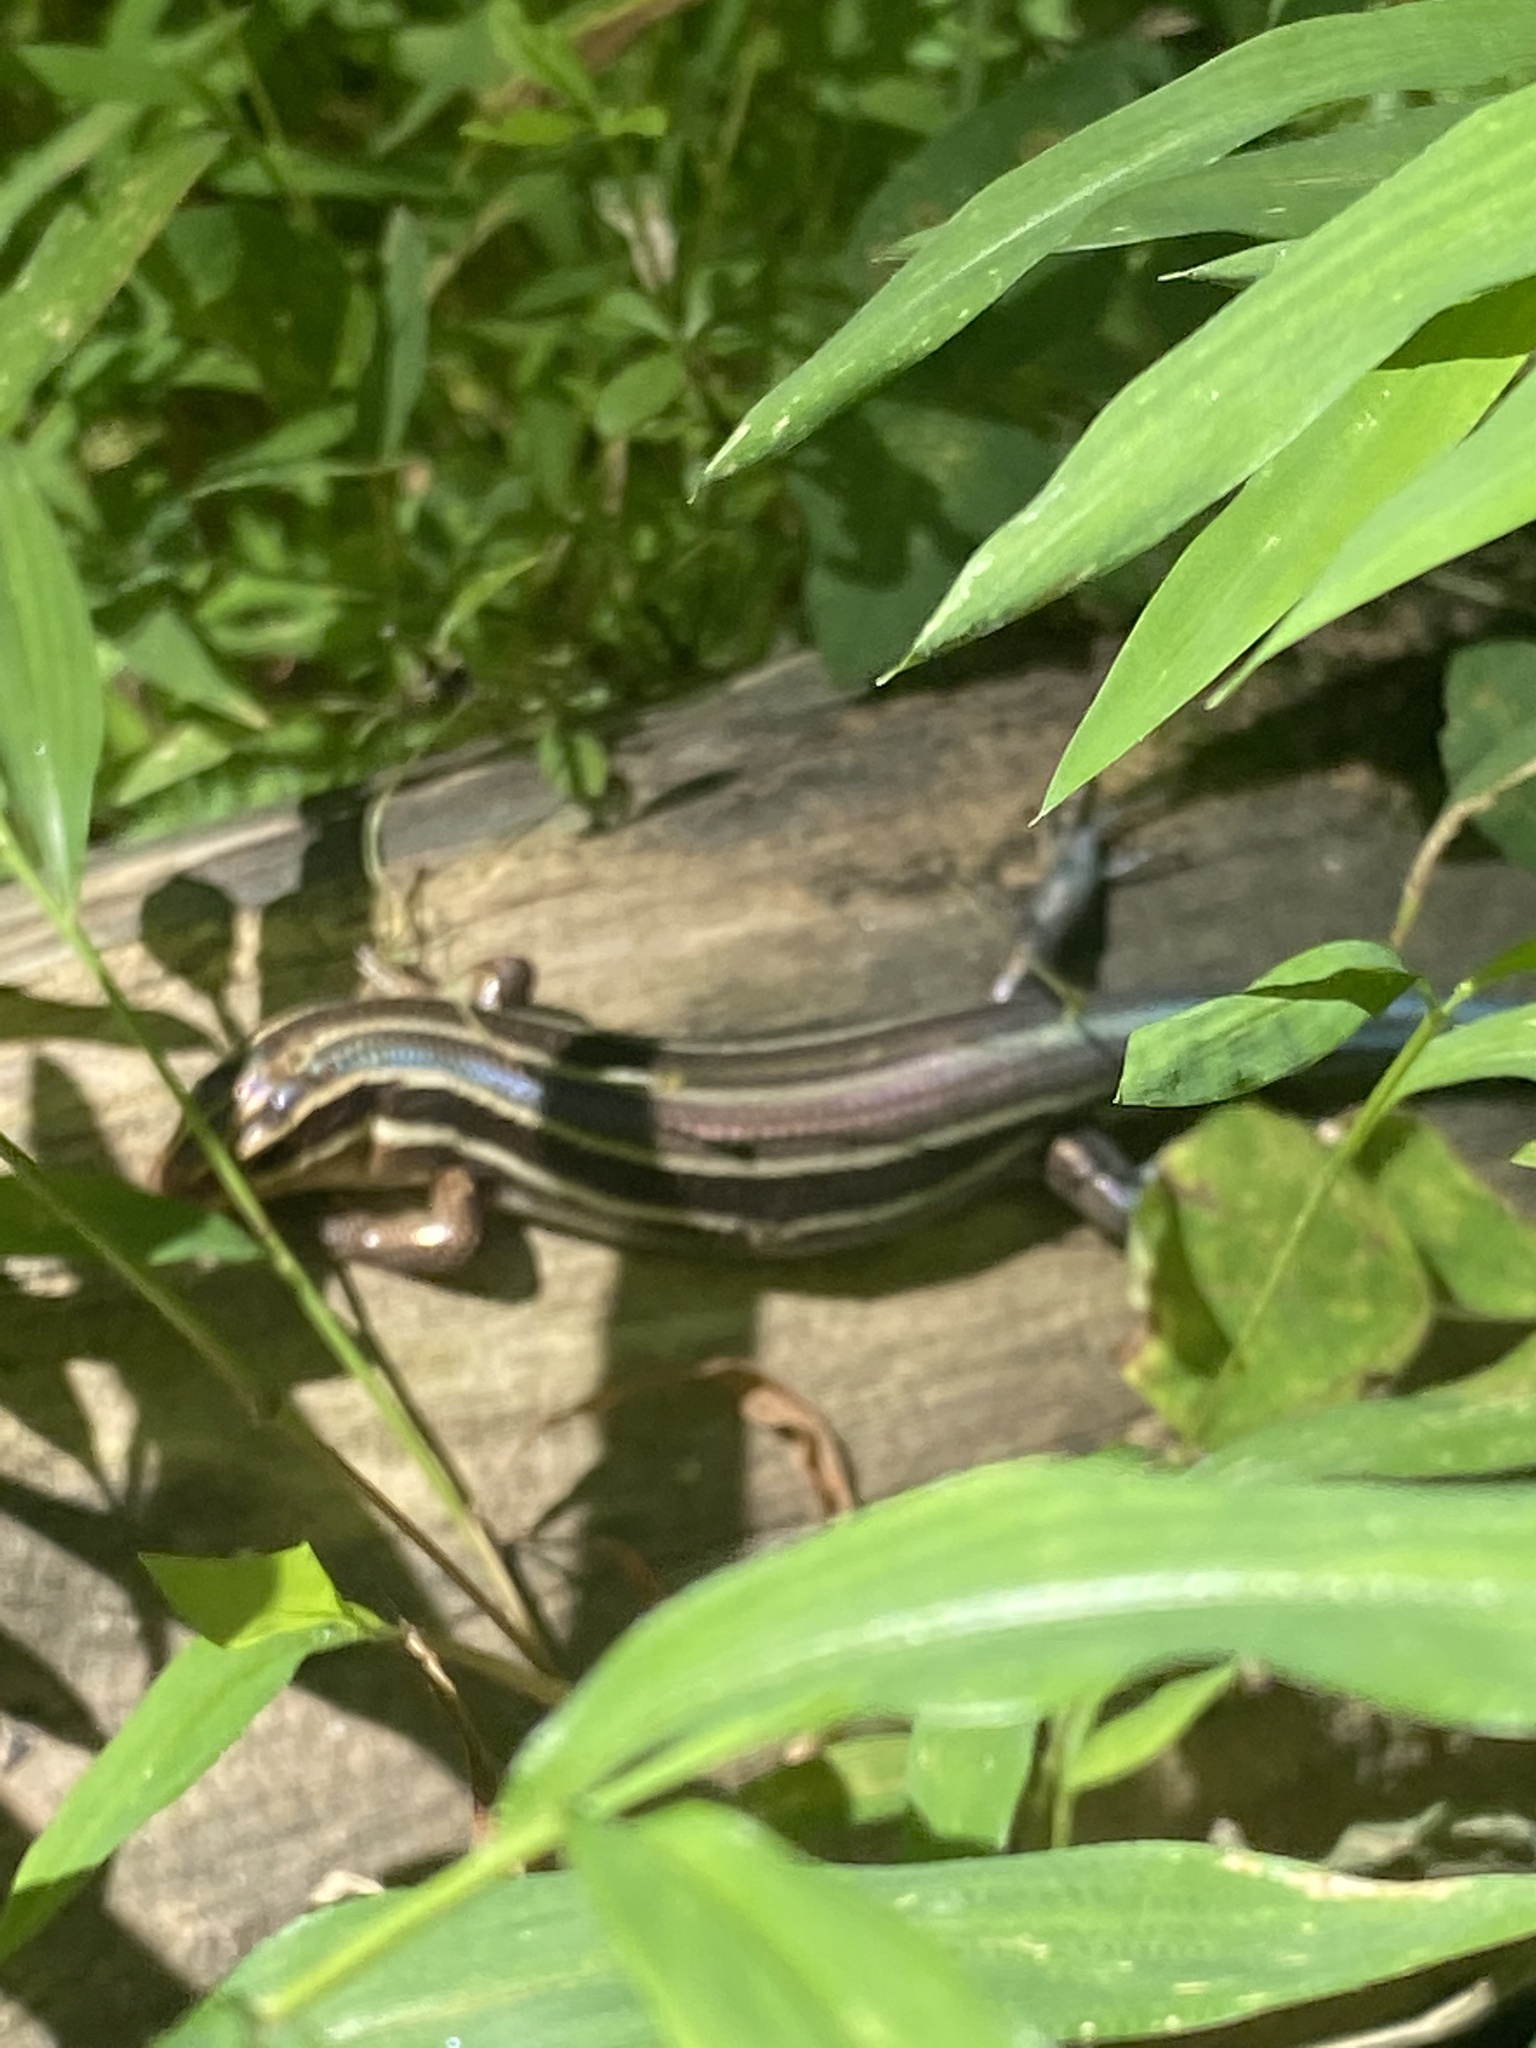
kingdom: Animalia
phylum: Chordata
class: Squamata
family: Scincidae
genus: Plestiodon
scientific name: Plestiodon laticeps
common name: Broadhead skink
